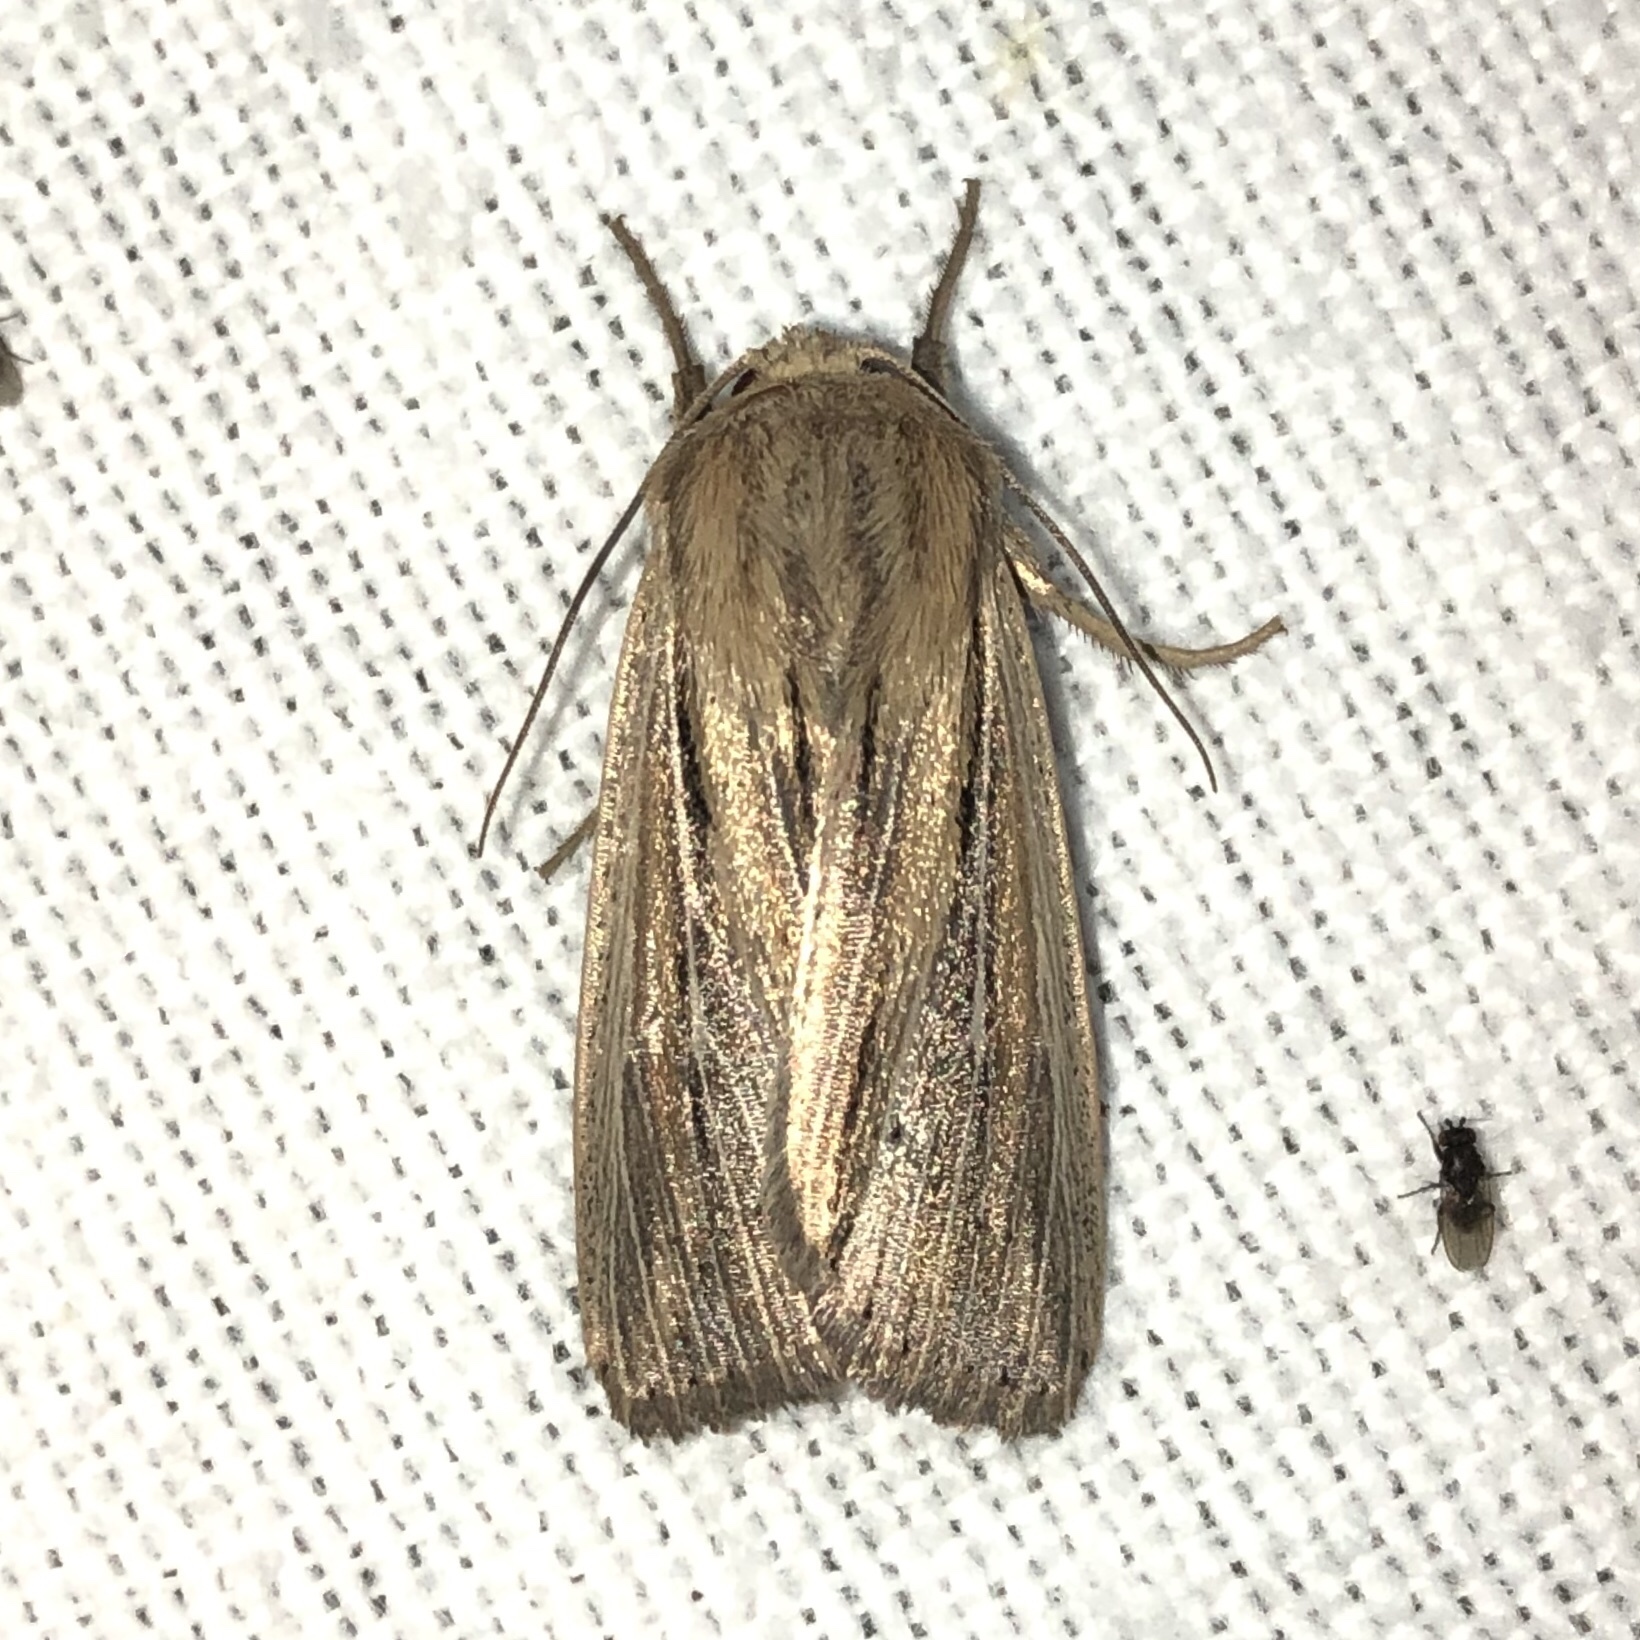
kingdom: Animalia
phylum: Arthropoda
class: Insecta
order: Lepidoptera
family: Noctuidae
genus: Leucania
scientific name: Leucania commoides
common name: Two-lined wainscot
